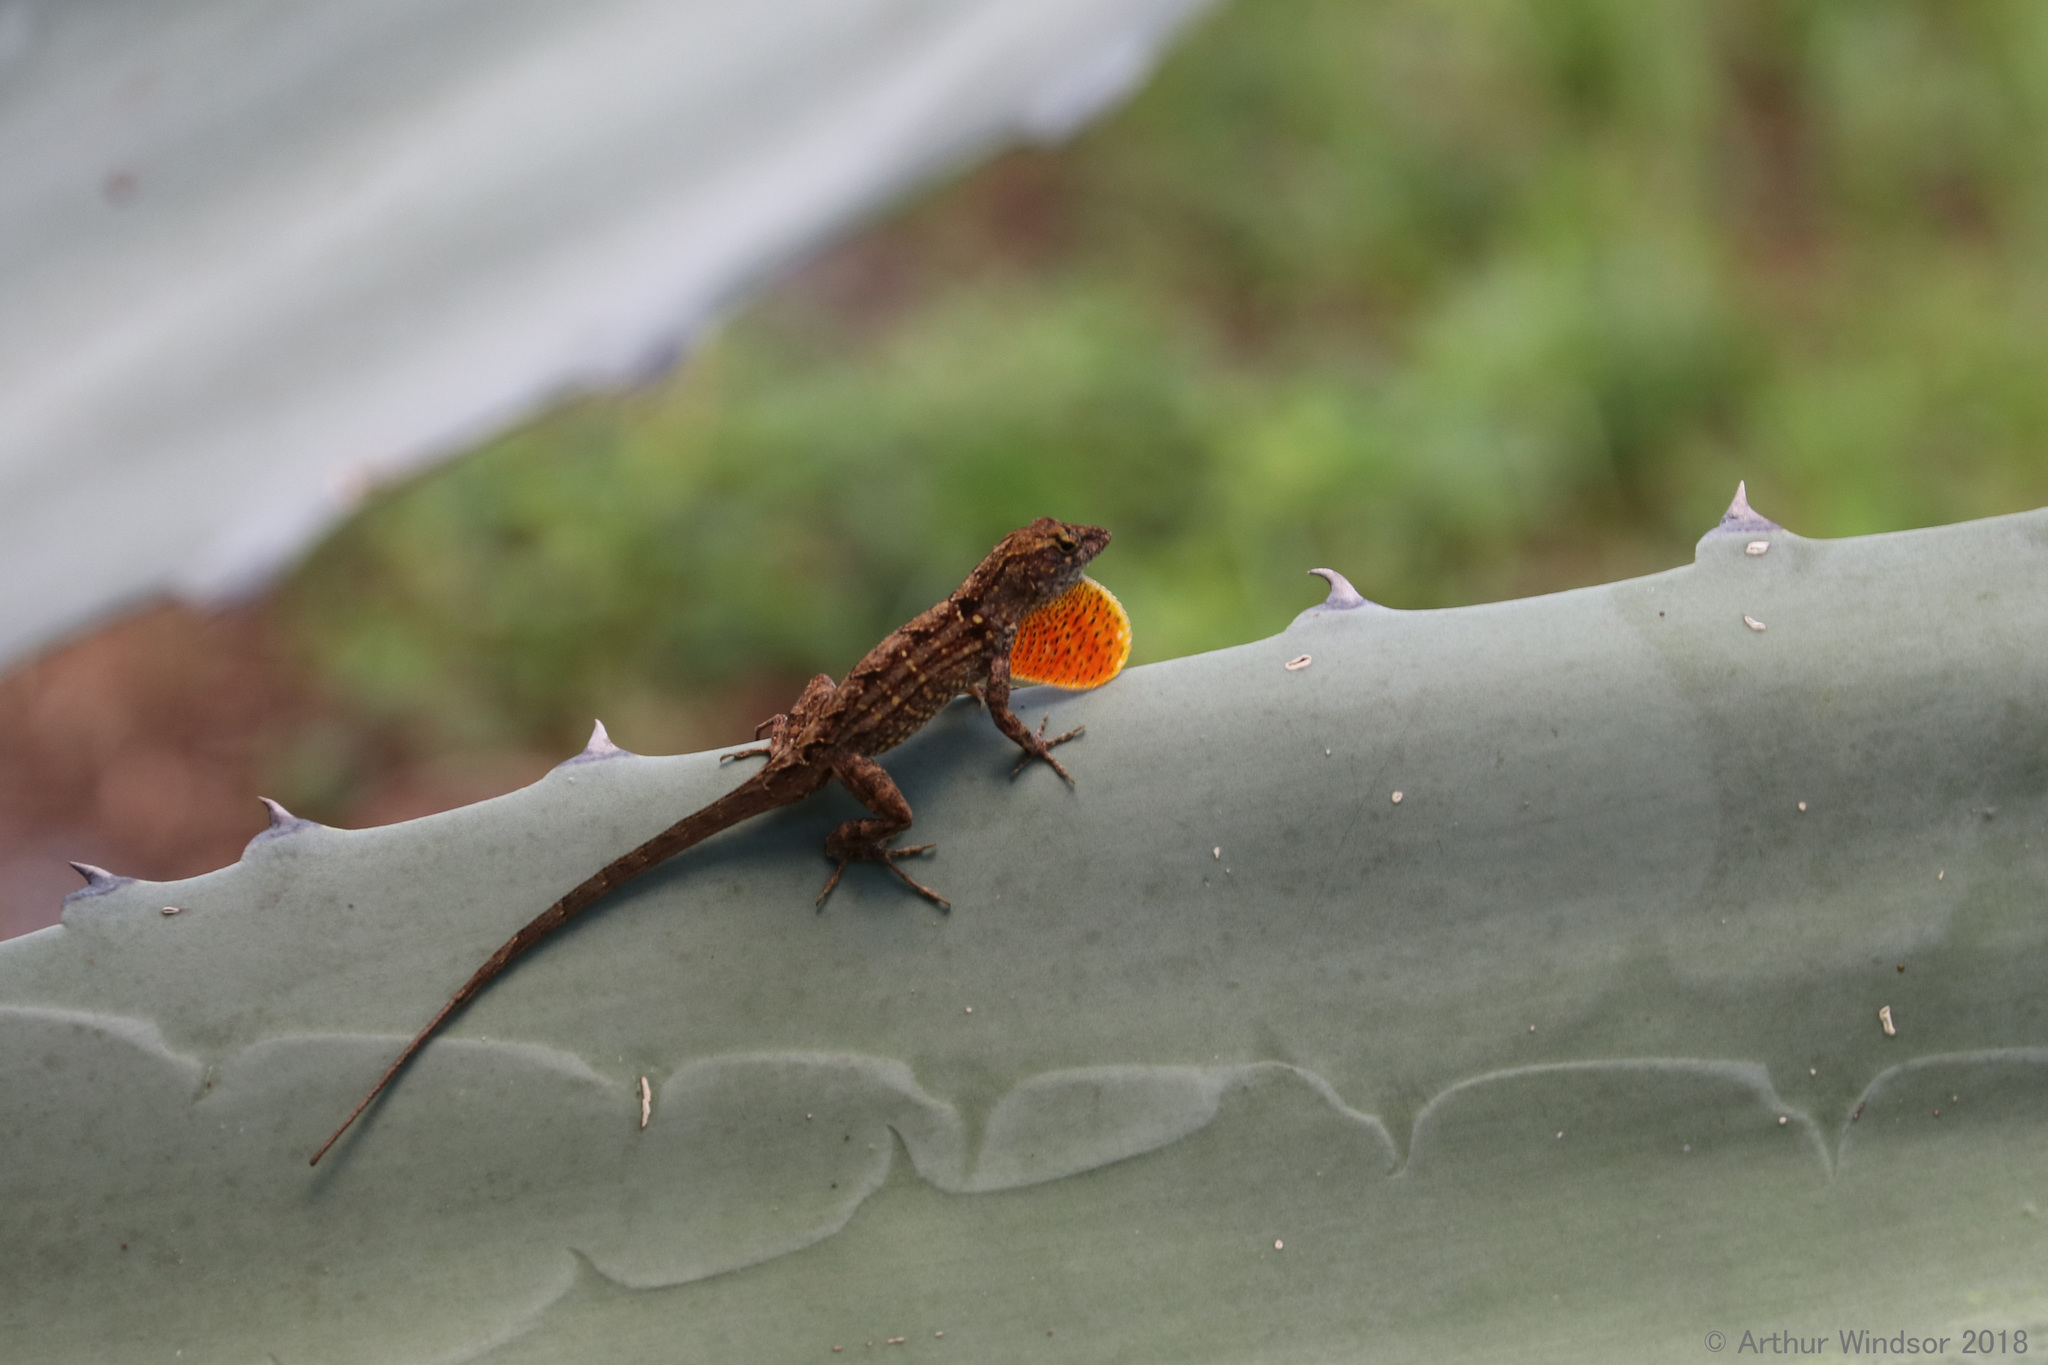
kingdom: Animalia
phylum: Chordata
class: Squamata
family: Dactyloidae
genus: Anolis
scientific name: Anolis sagrei
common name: Brown anole
